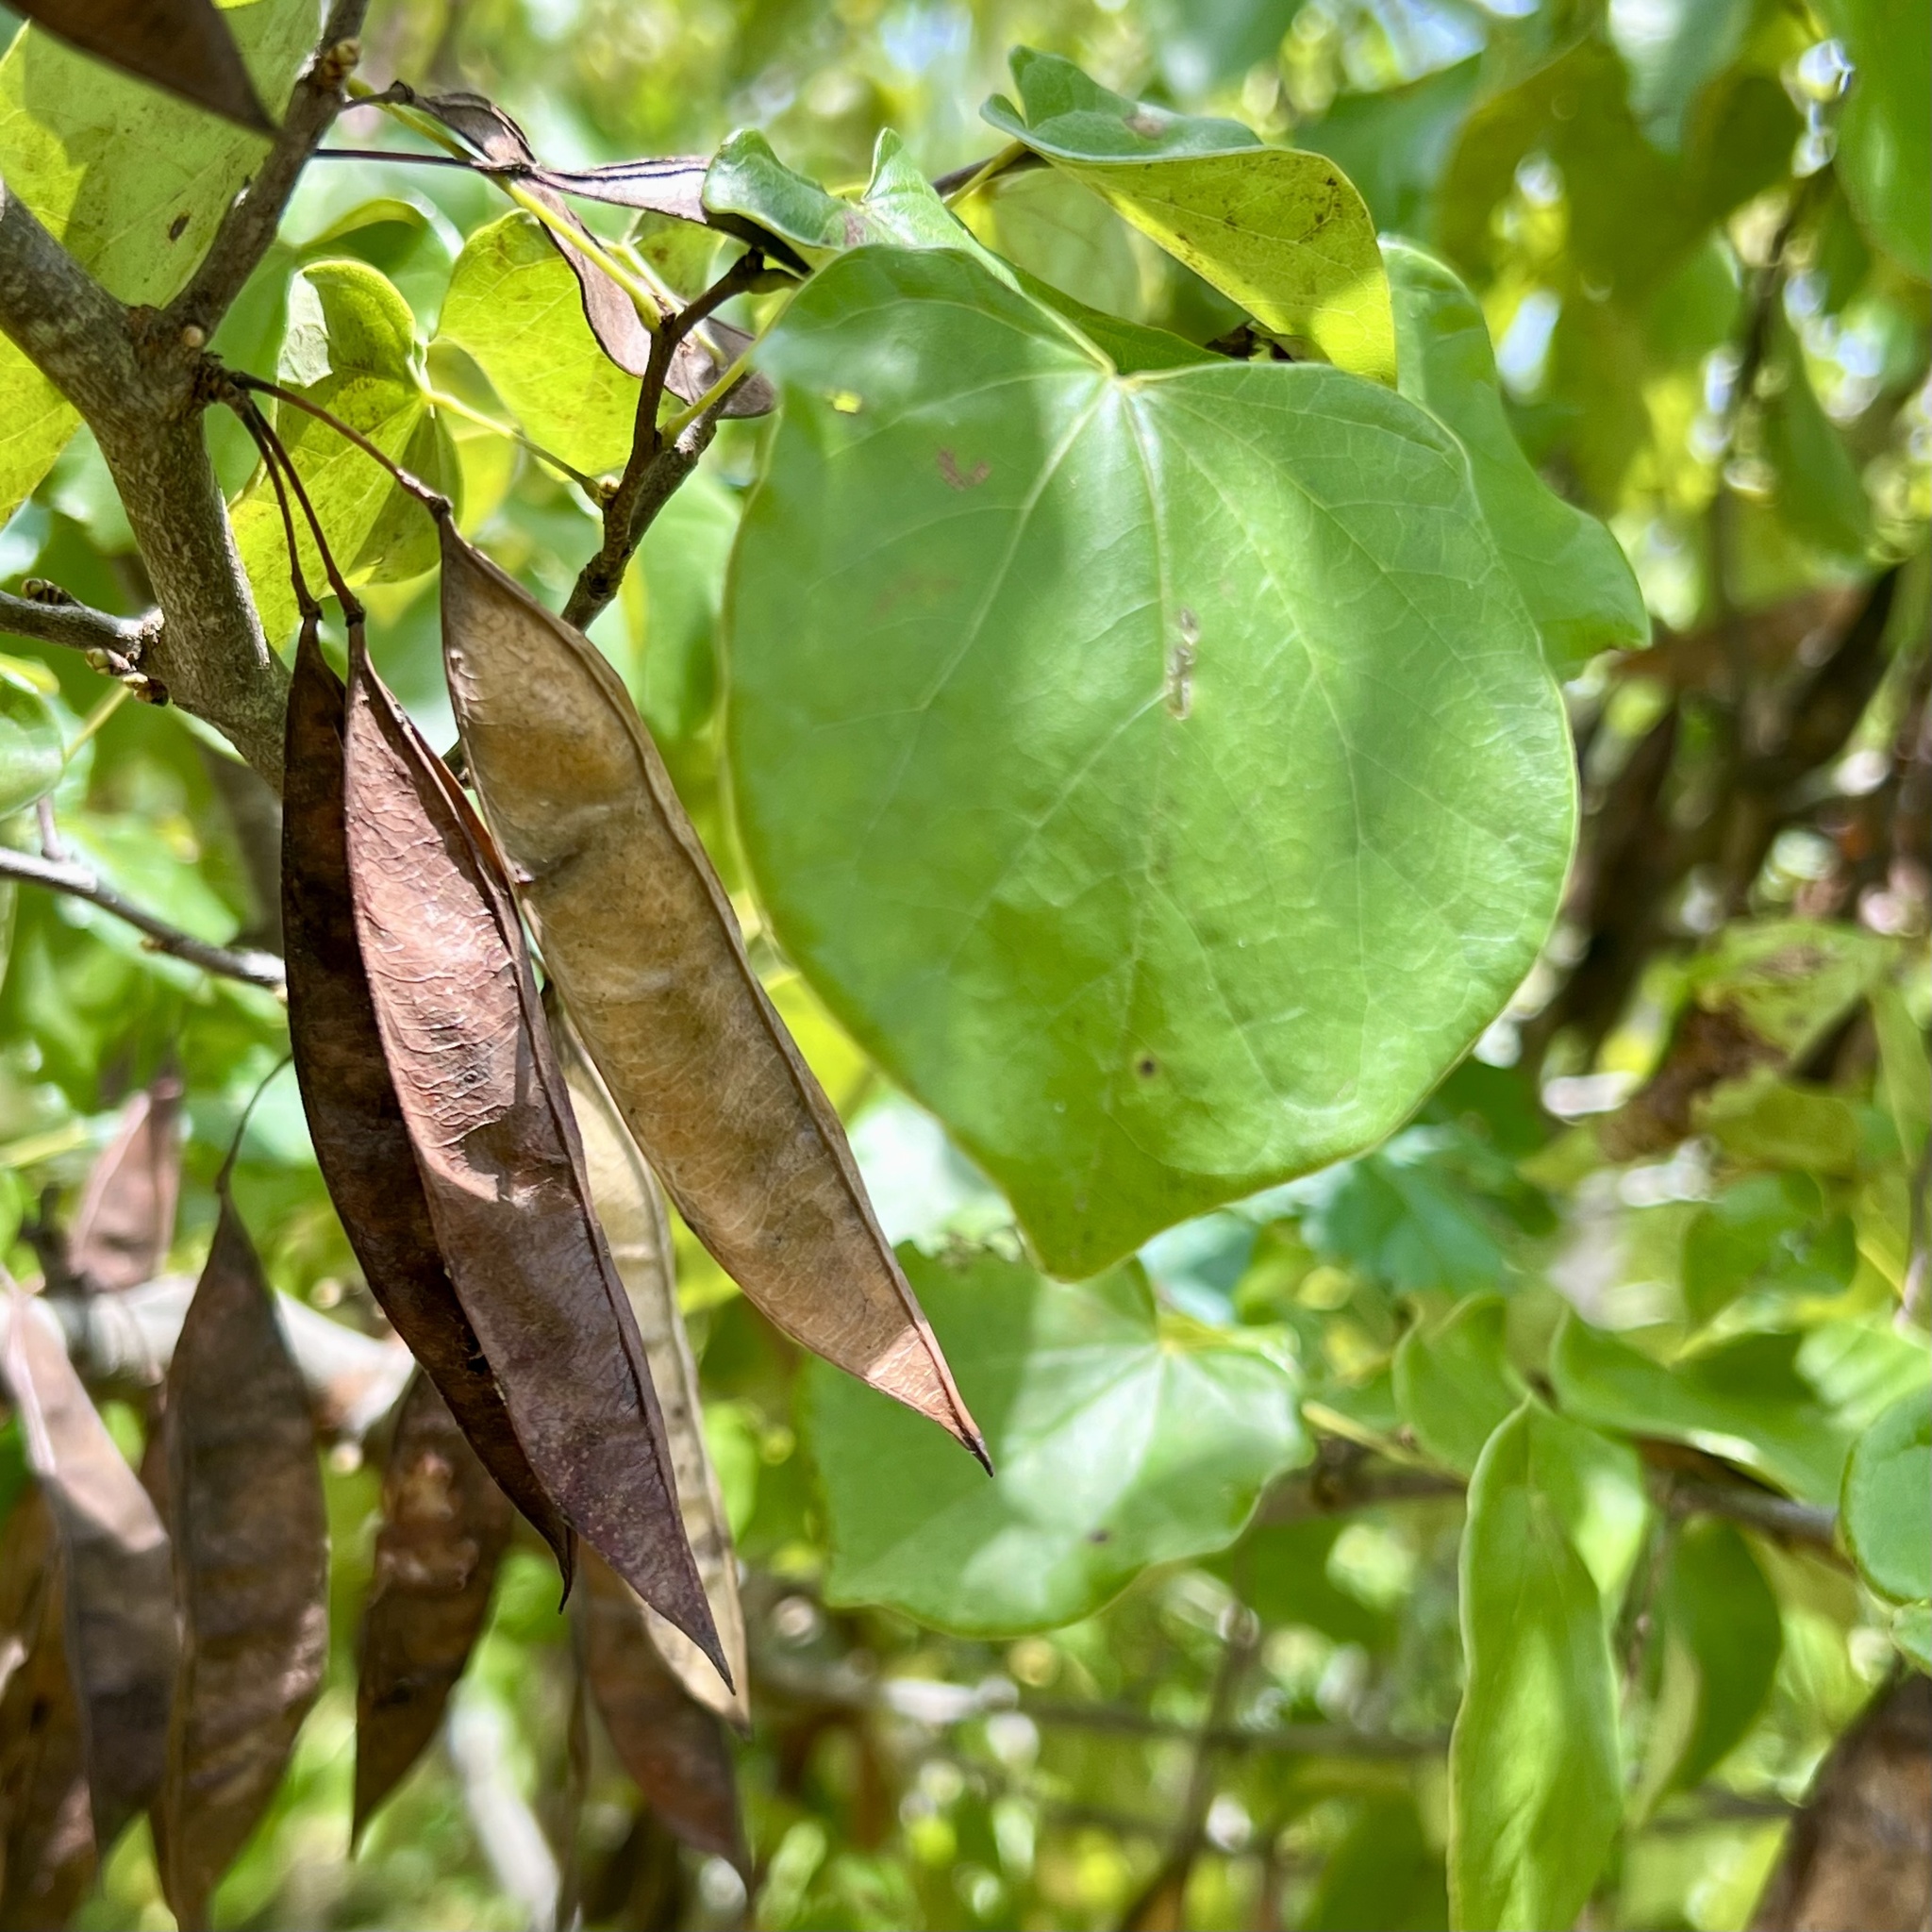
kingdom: Plantae
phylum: Tracheophyta
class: Magnoliopsida
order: Fabales
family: Fabaceae
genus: Cercis
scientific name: Cercis canadensis
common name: Eastern redbud
